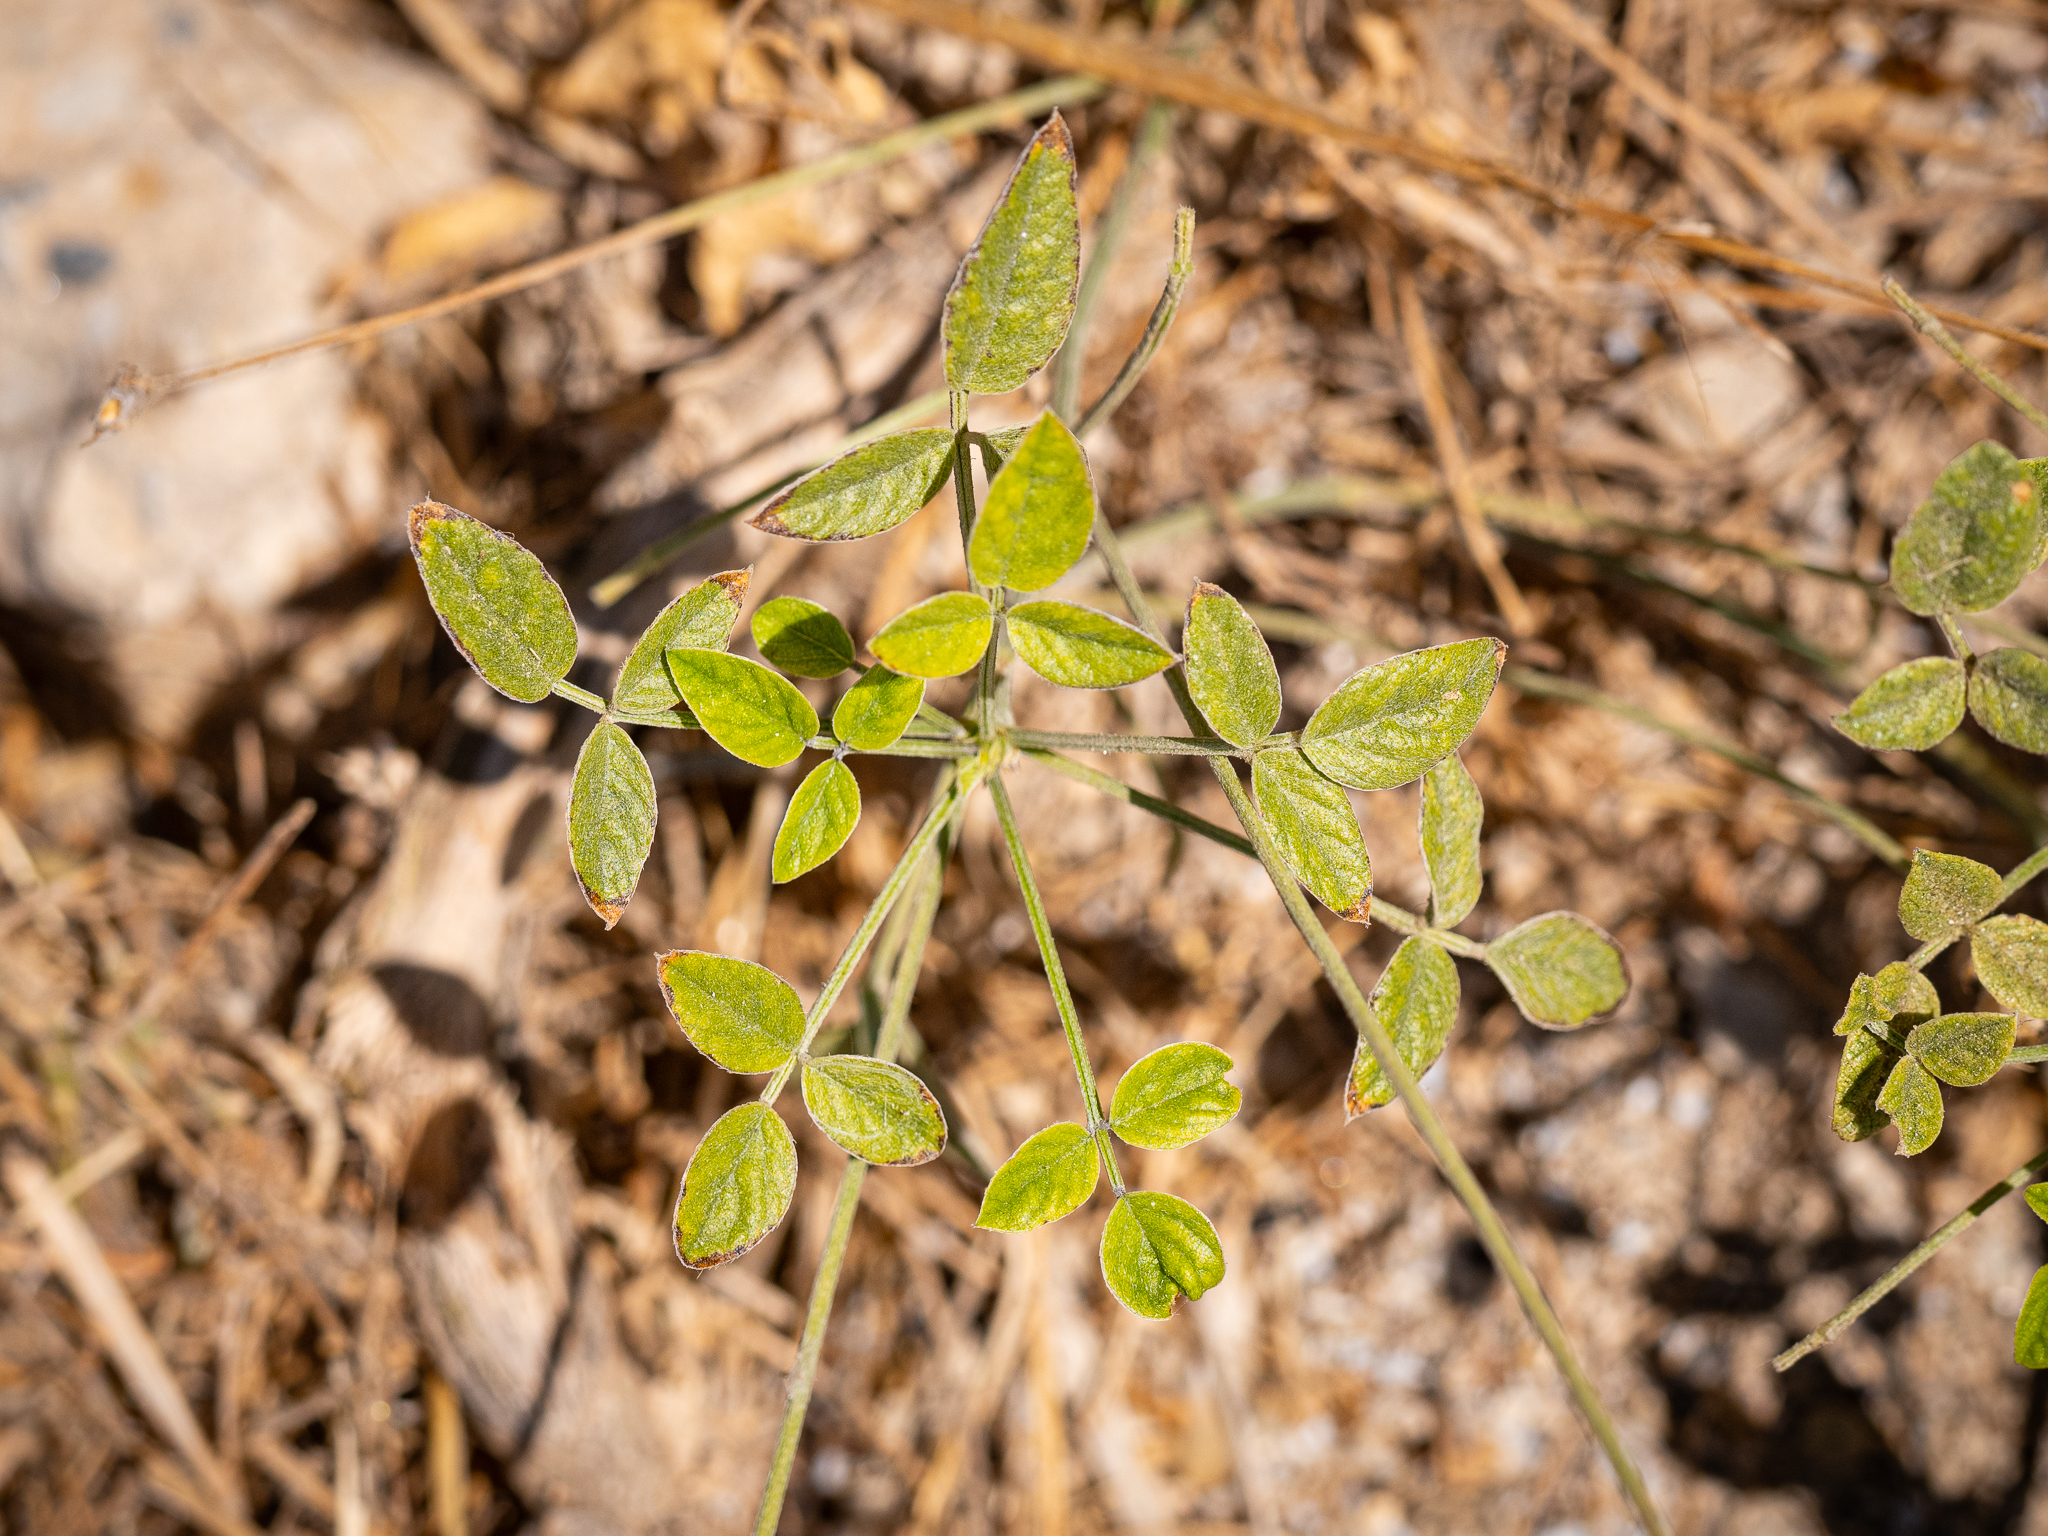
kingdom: Plantae
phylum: Tracheophyta
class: Magnoliopsida
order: Fabales
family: Fabaceae
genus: Bituminaria
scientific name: Bituminaria bituminosa
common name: Arabian pea
